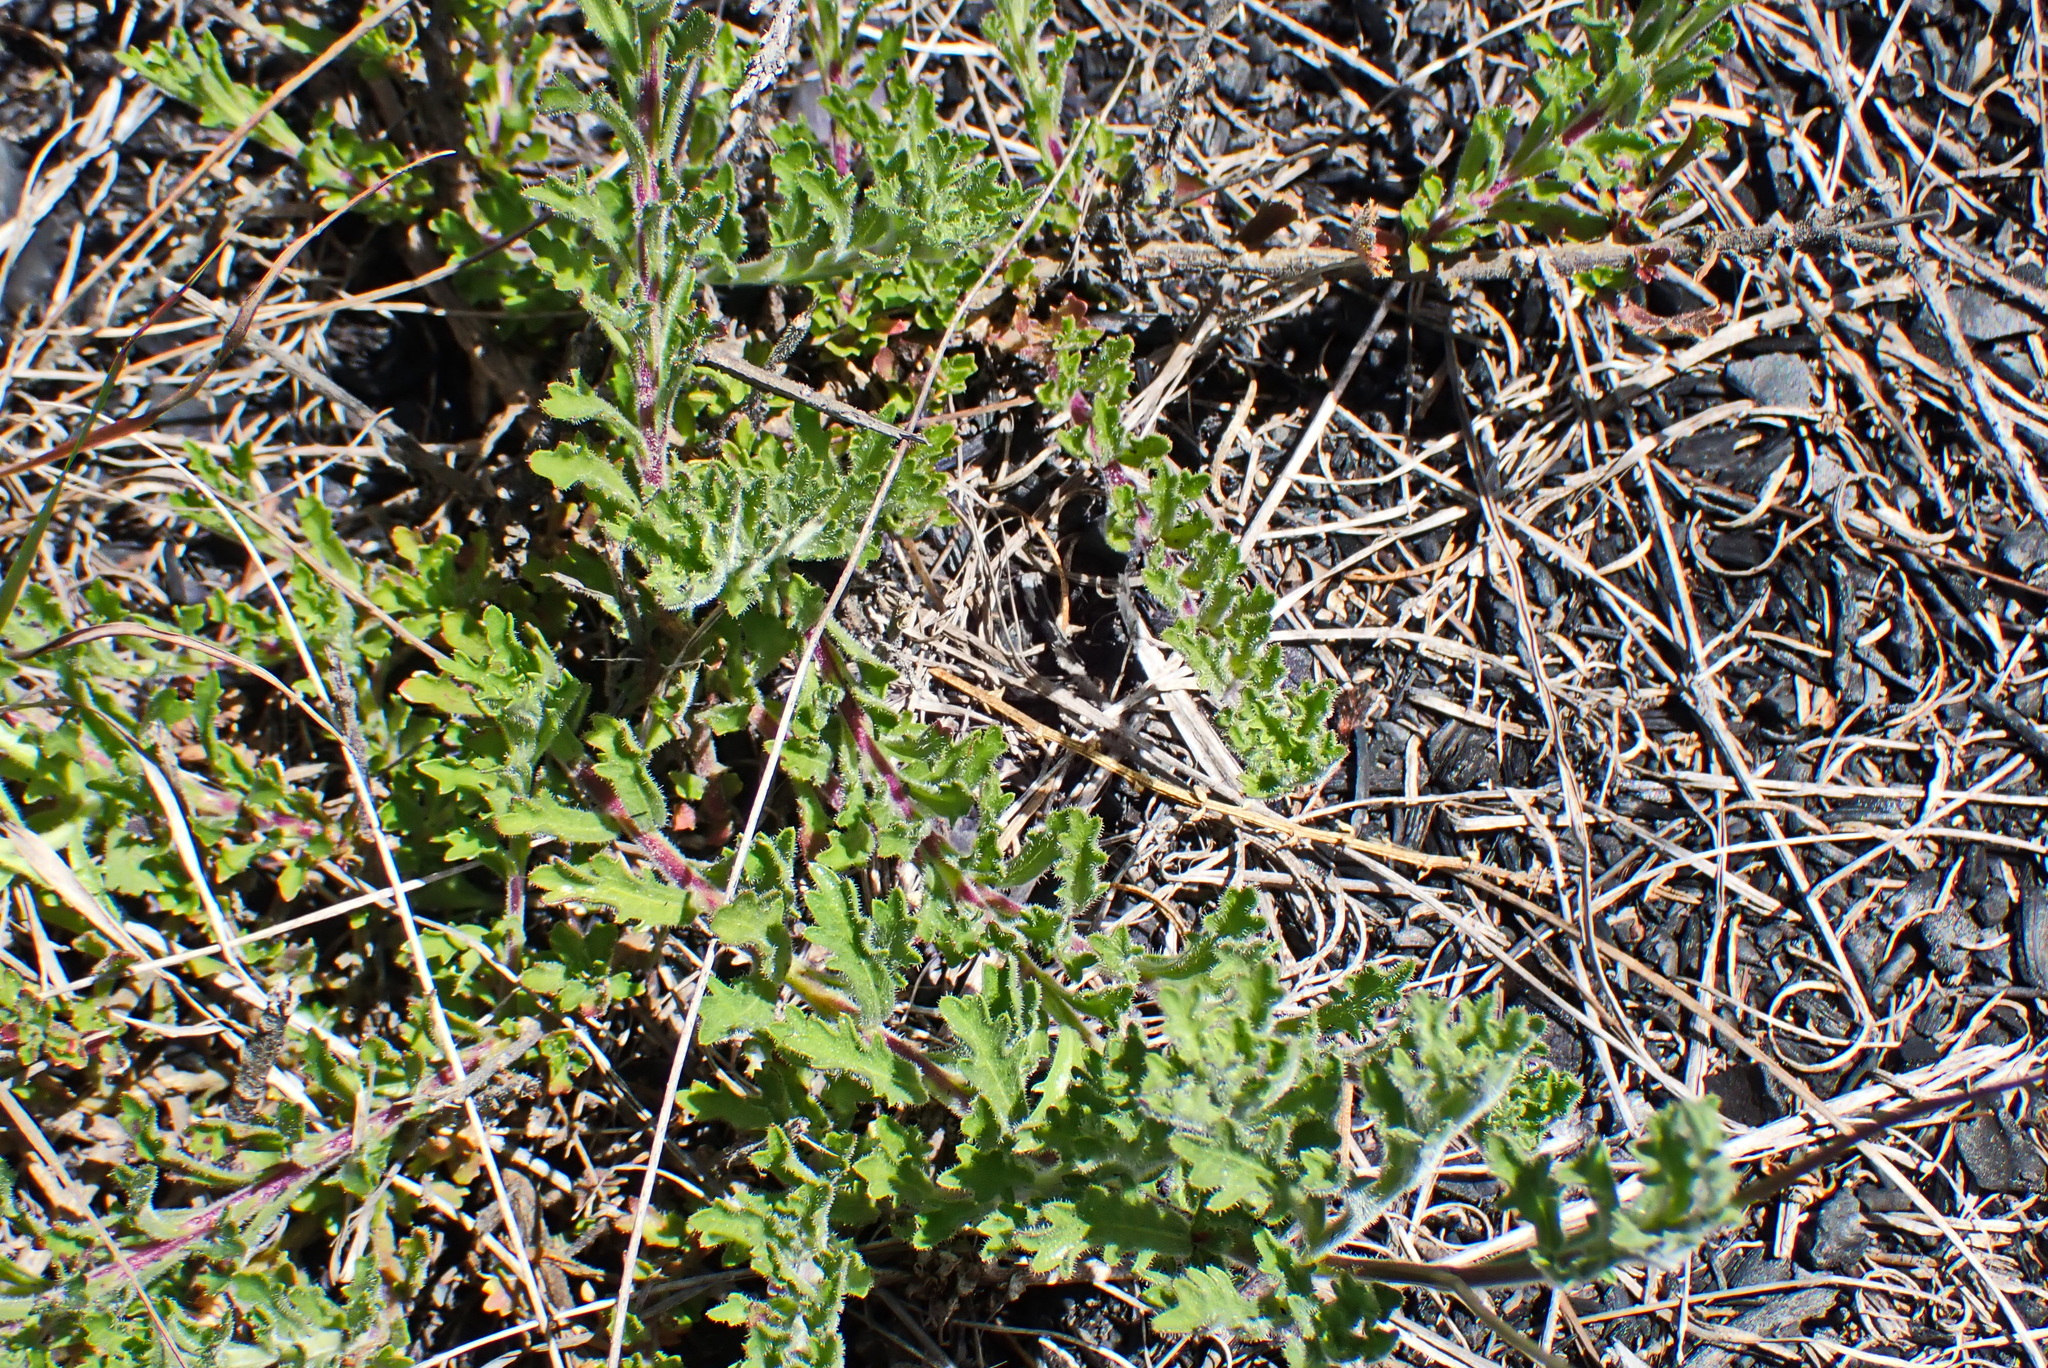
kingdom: Plantae
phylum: Tracheophyta
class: Magnoliopsida
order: Asterales
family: Campanulaceae
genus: Lobelia
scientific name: Lobelia tomentosa
